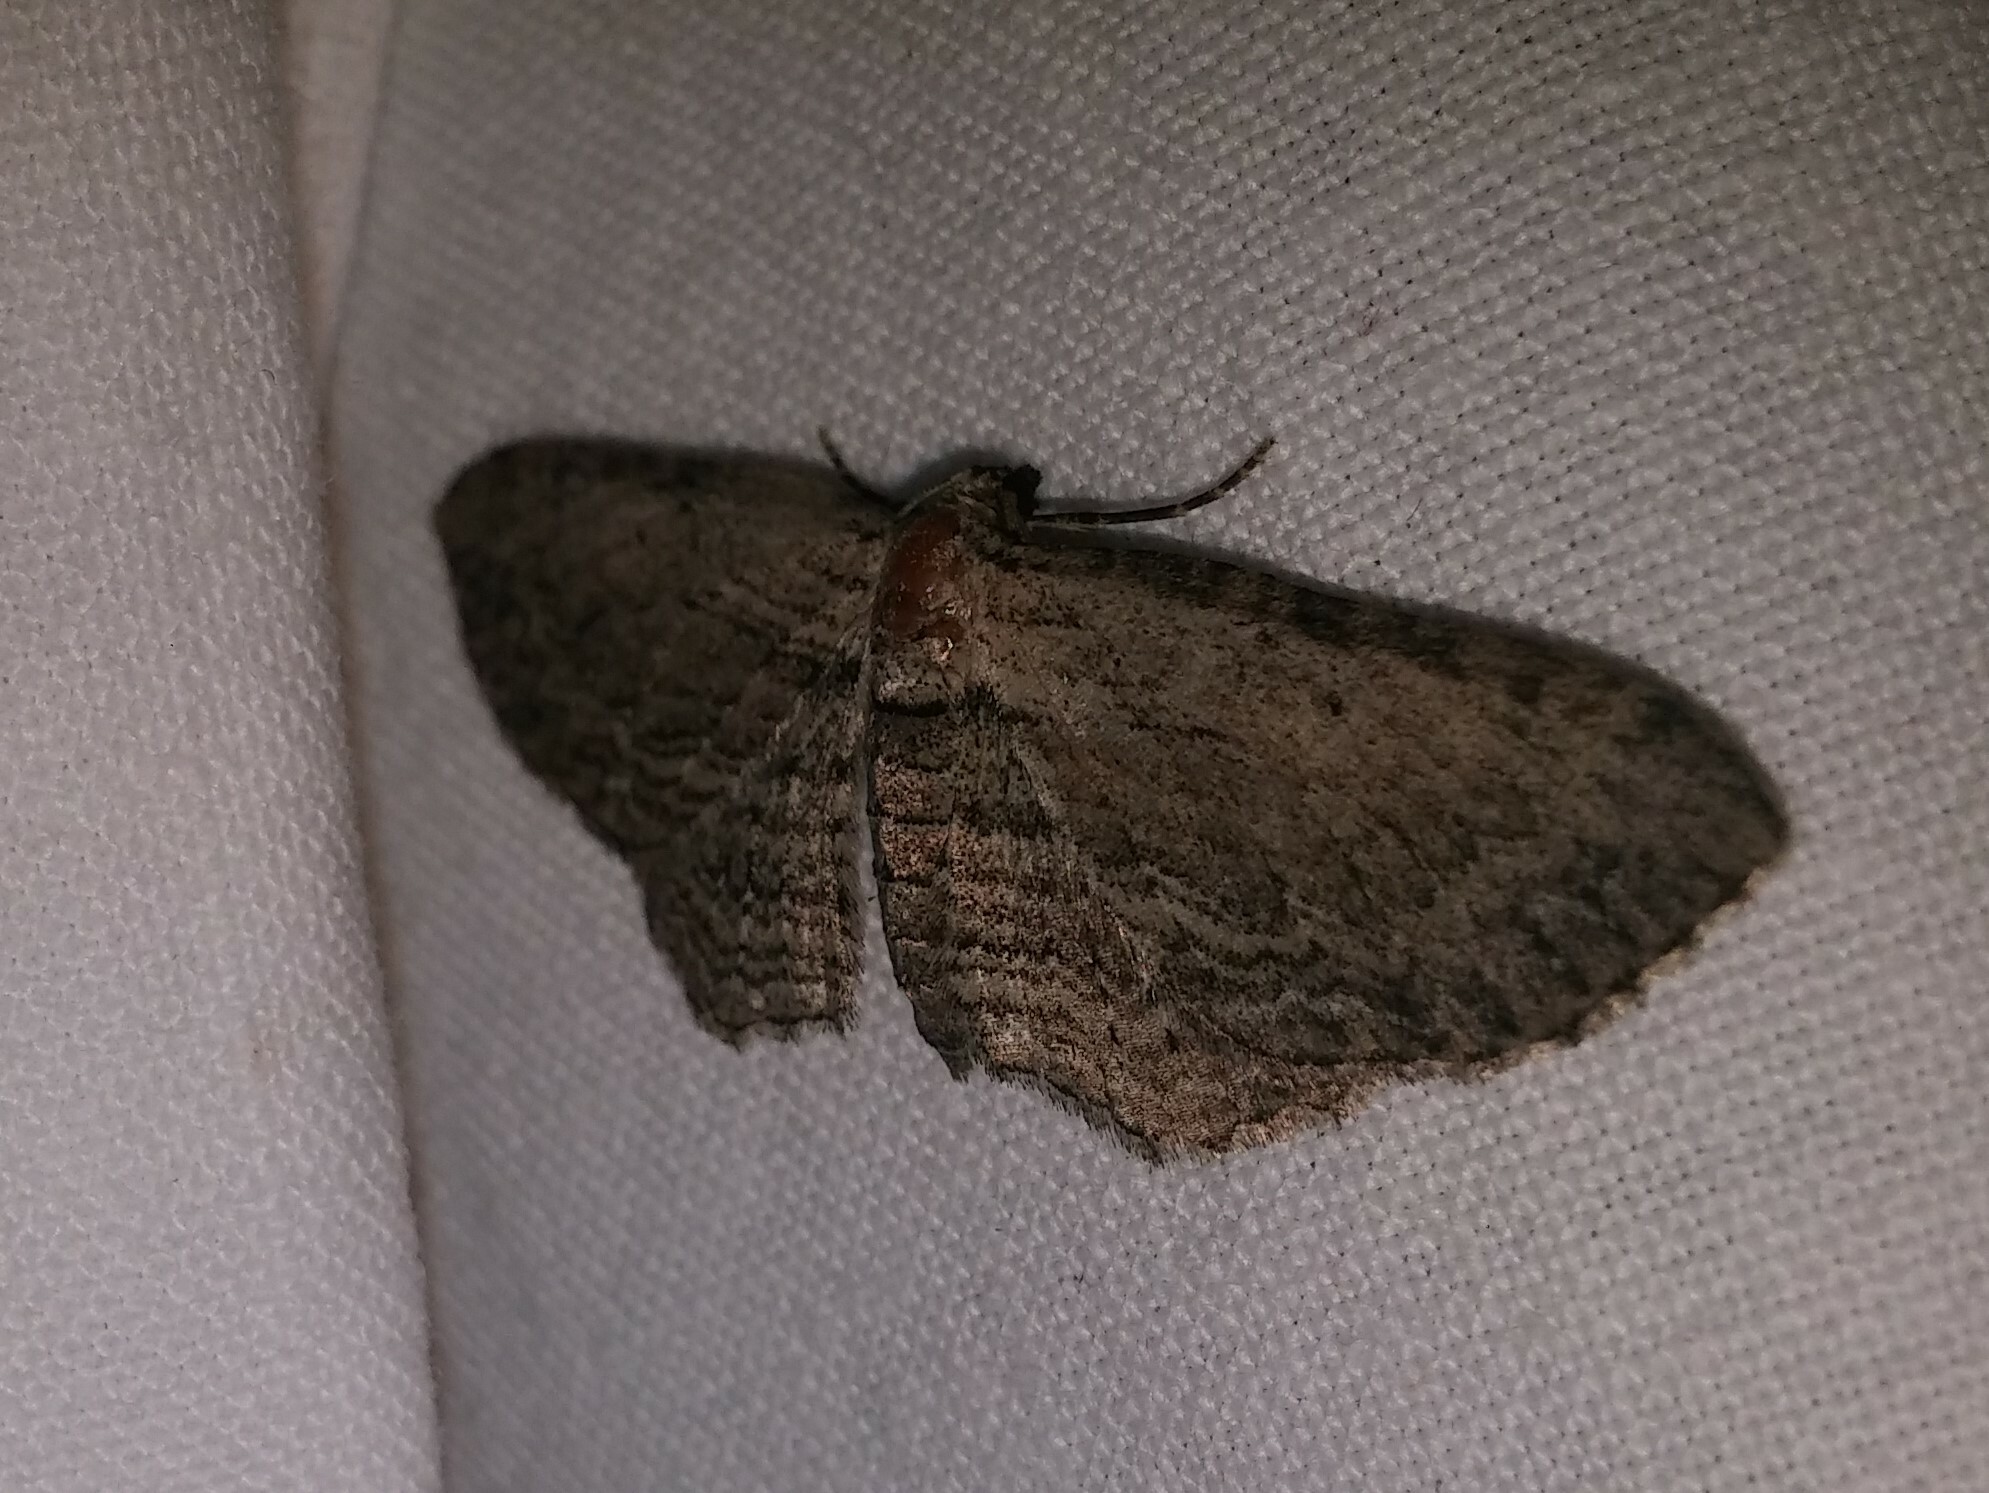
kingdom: Animalia
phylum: Arthropoda
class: Insecta
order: Lepidoptera
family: Geometridae
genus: Horisme
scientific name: Horisme intestinata
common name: Brown bark carpet
